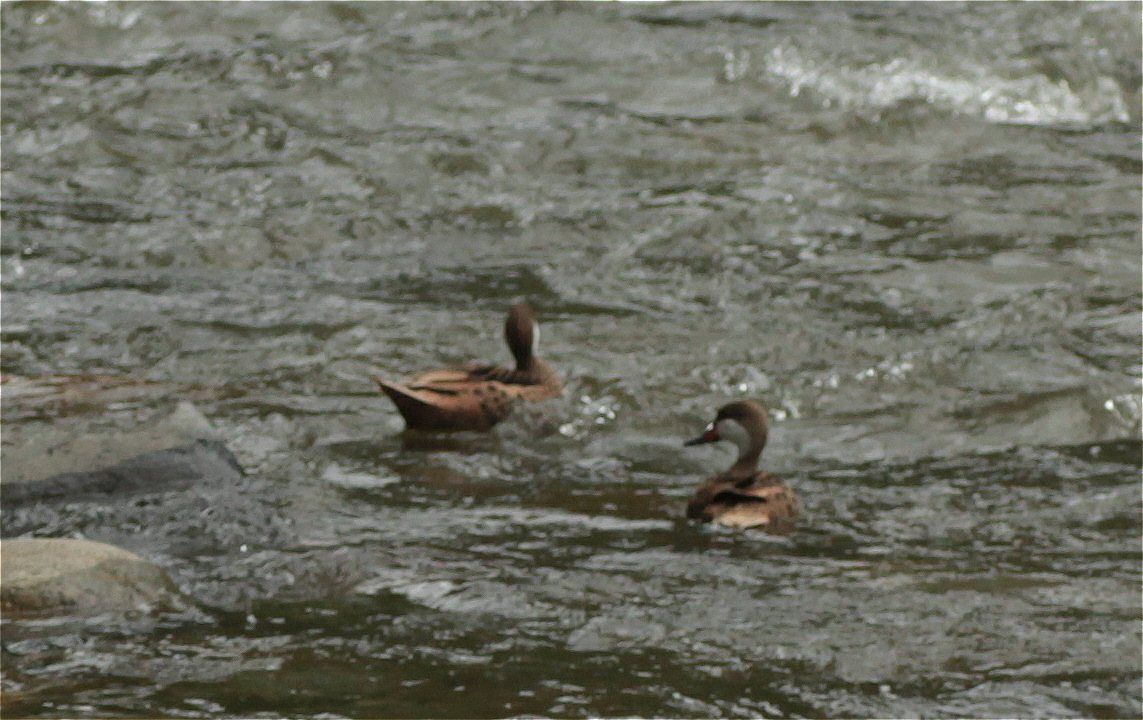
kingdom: Animalia
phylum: Chordata
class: Aves
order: Anseriformes
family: Anatidae
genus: Anas
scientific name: Anas bahamensis
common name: White-cheeked pintail
